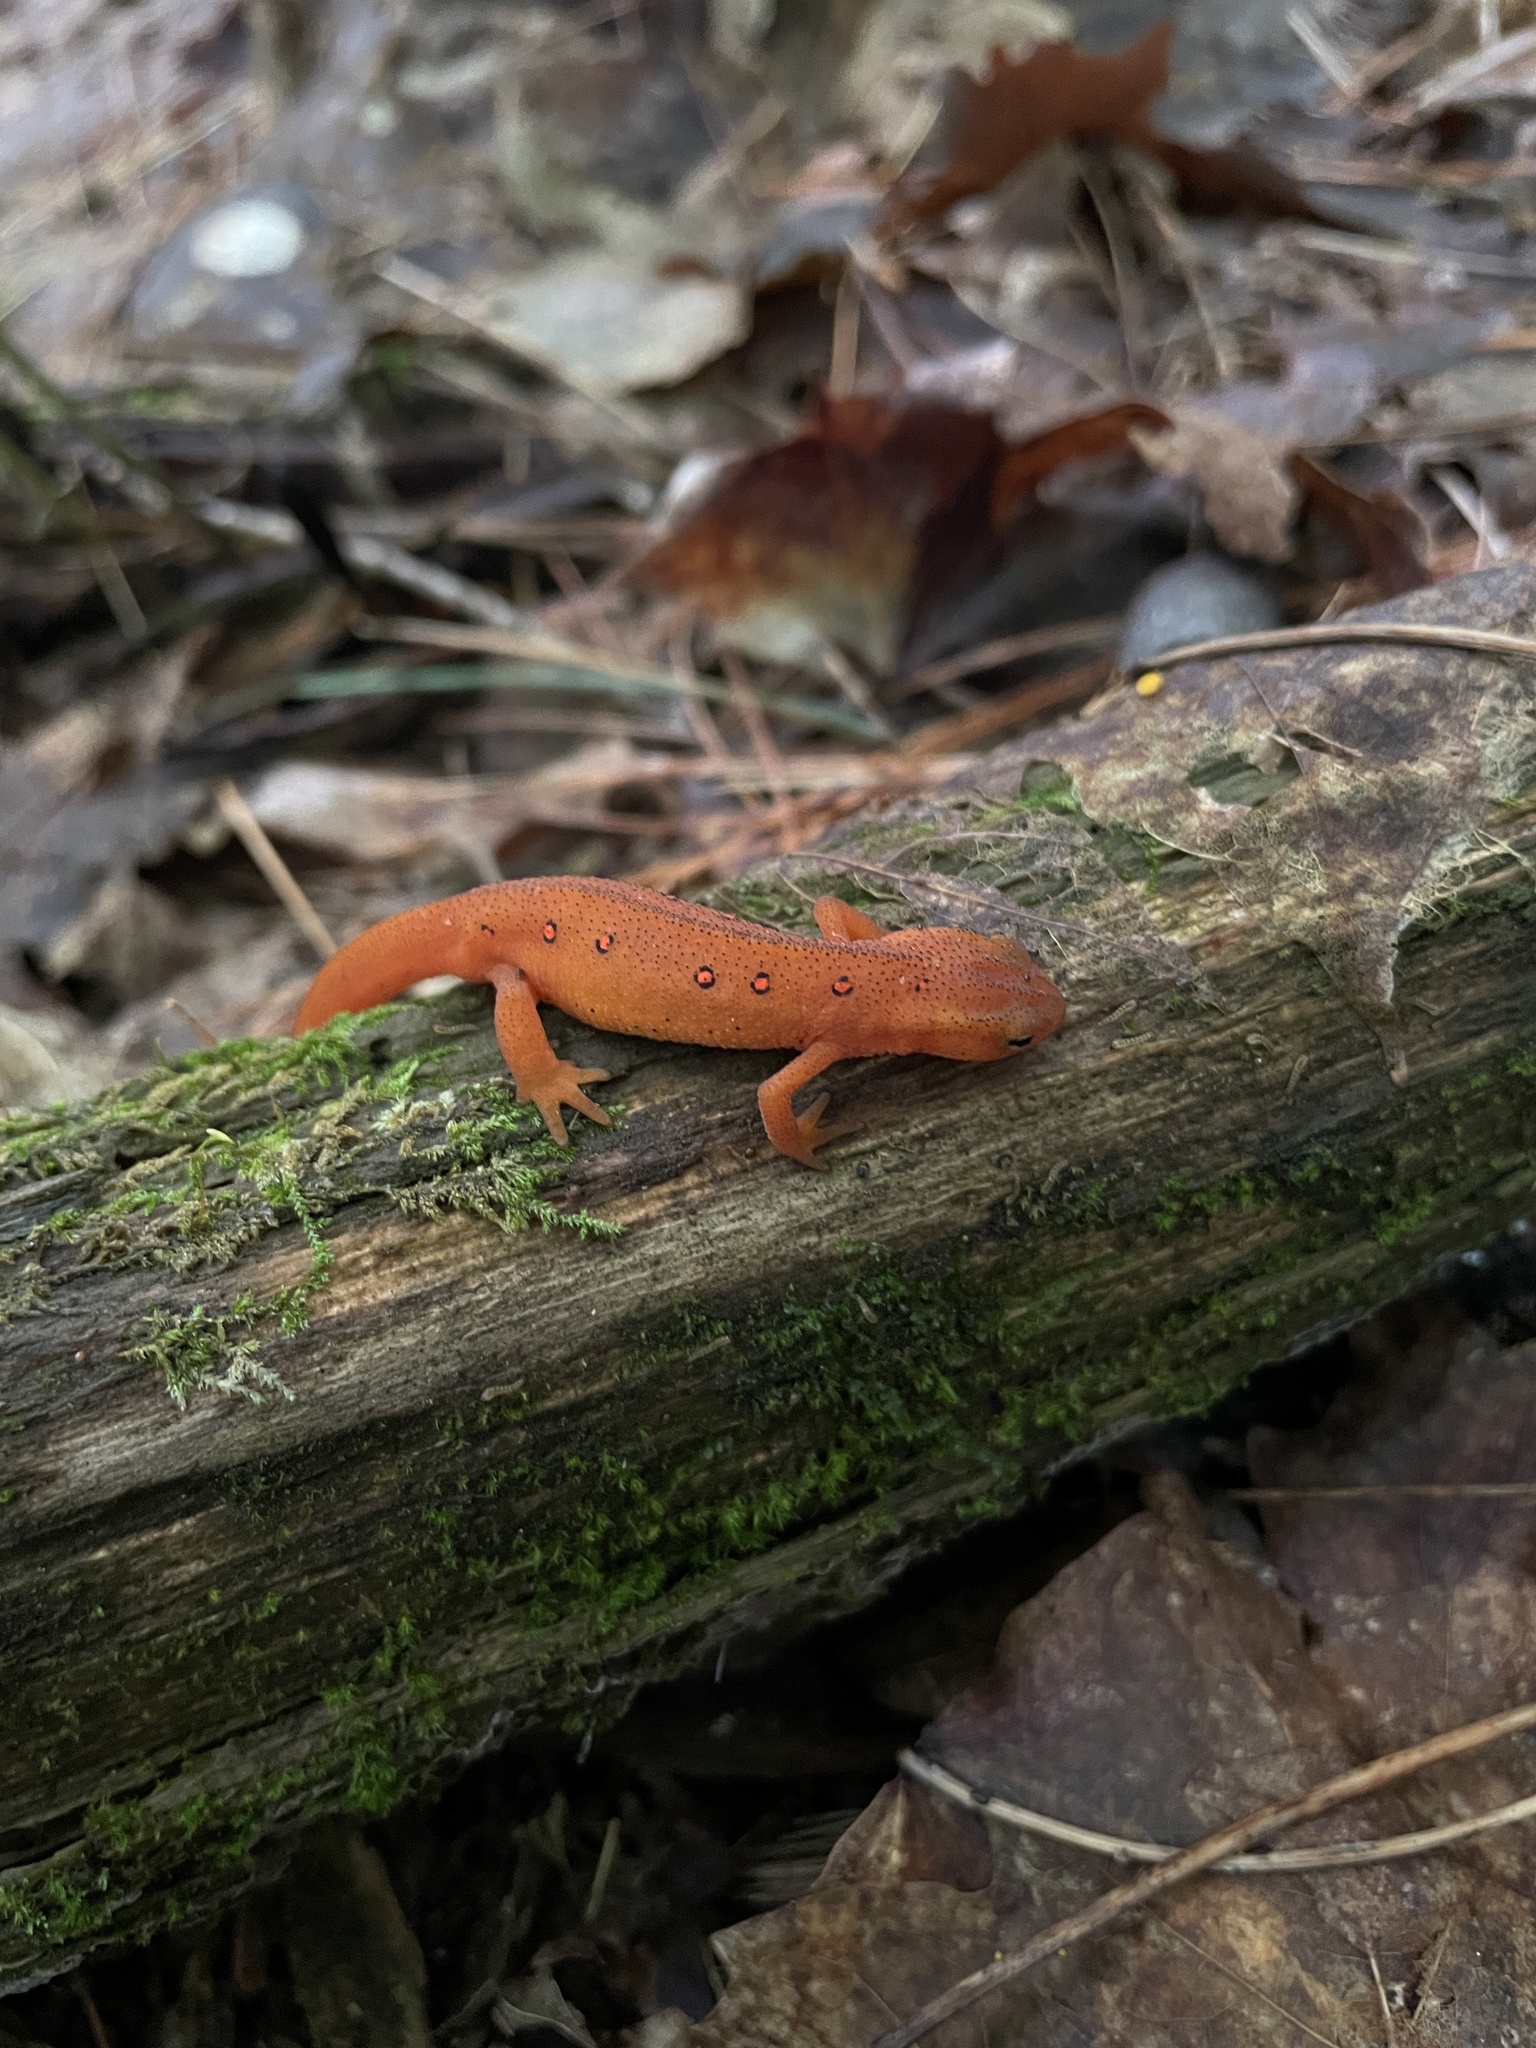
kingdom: Animalia
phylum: Chordata
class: Amphibia
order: Caudata
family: Salamandridae
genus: Notophthalmus
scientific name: Notophthalmus viridescens
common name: Eastern newt
